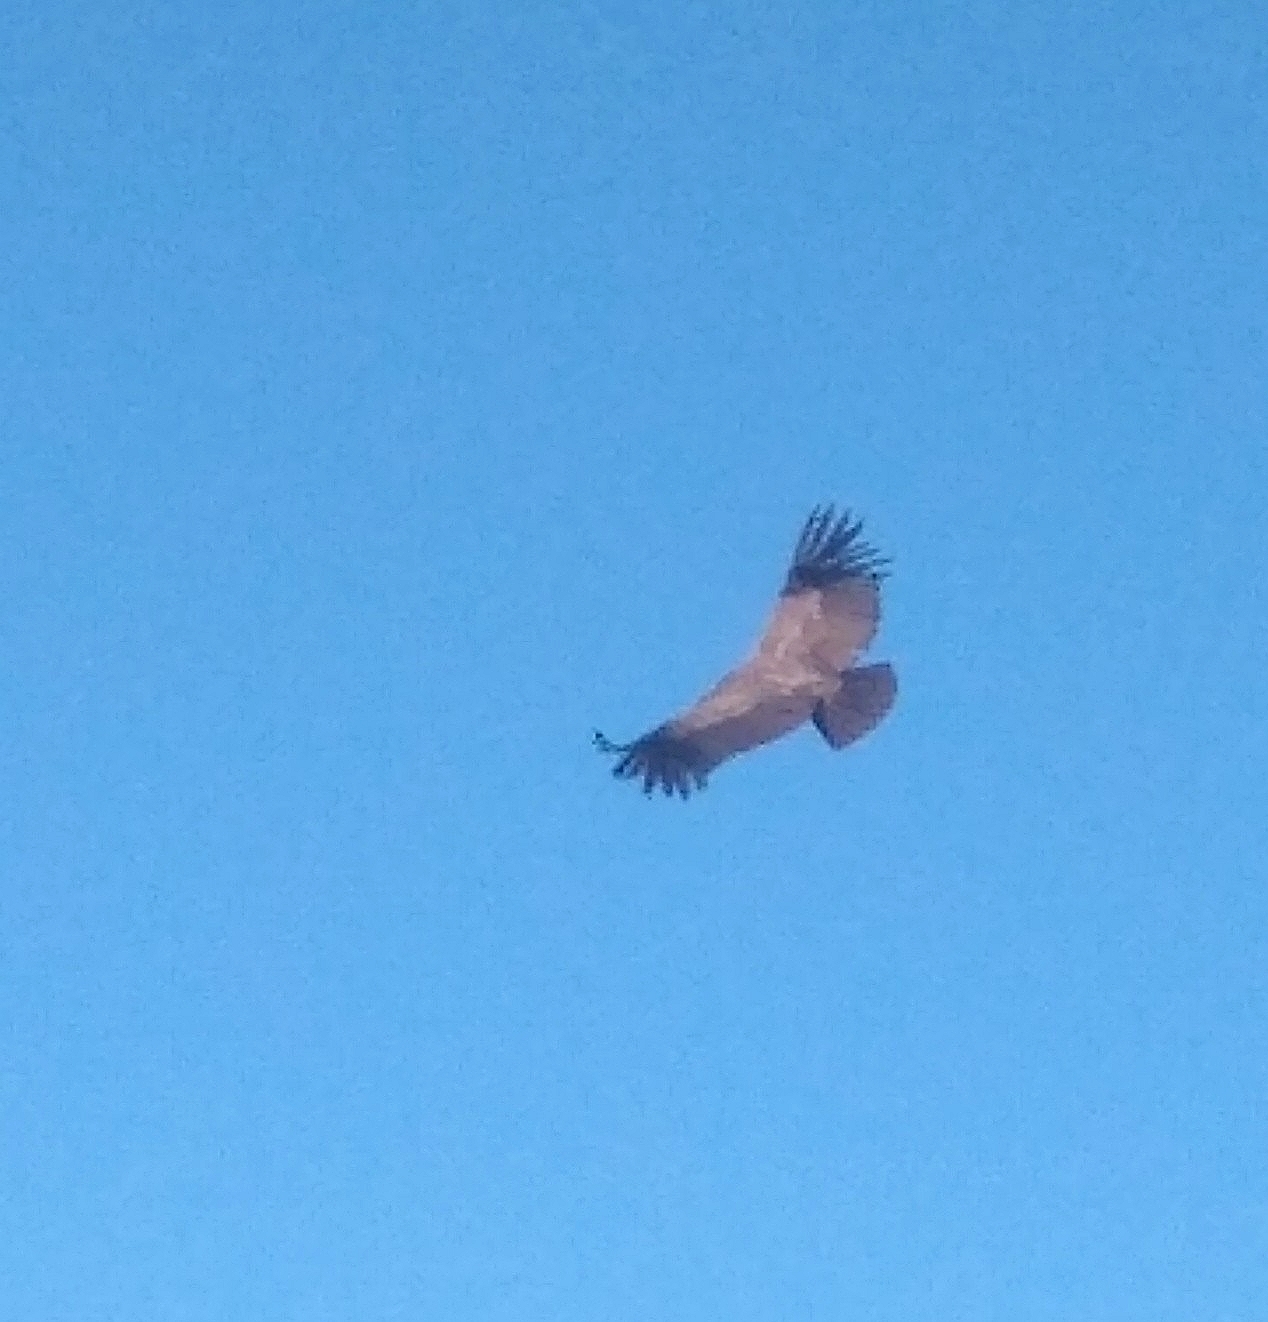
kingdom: Animalia
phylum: Chordata
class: Aves
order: Accipitriformes
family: Cathartidae
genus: Vultur
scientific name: Vultur gryphus
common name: Andean condor
